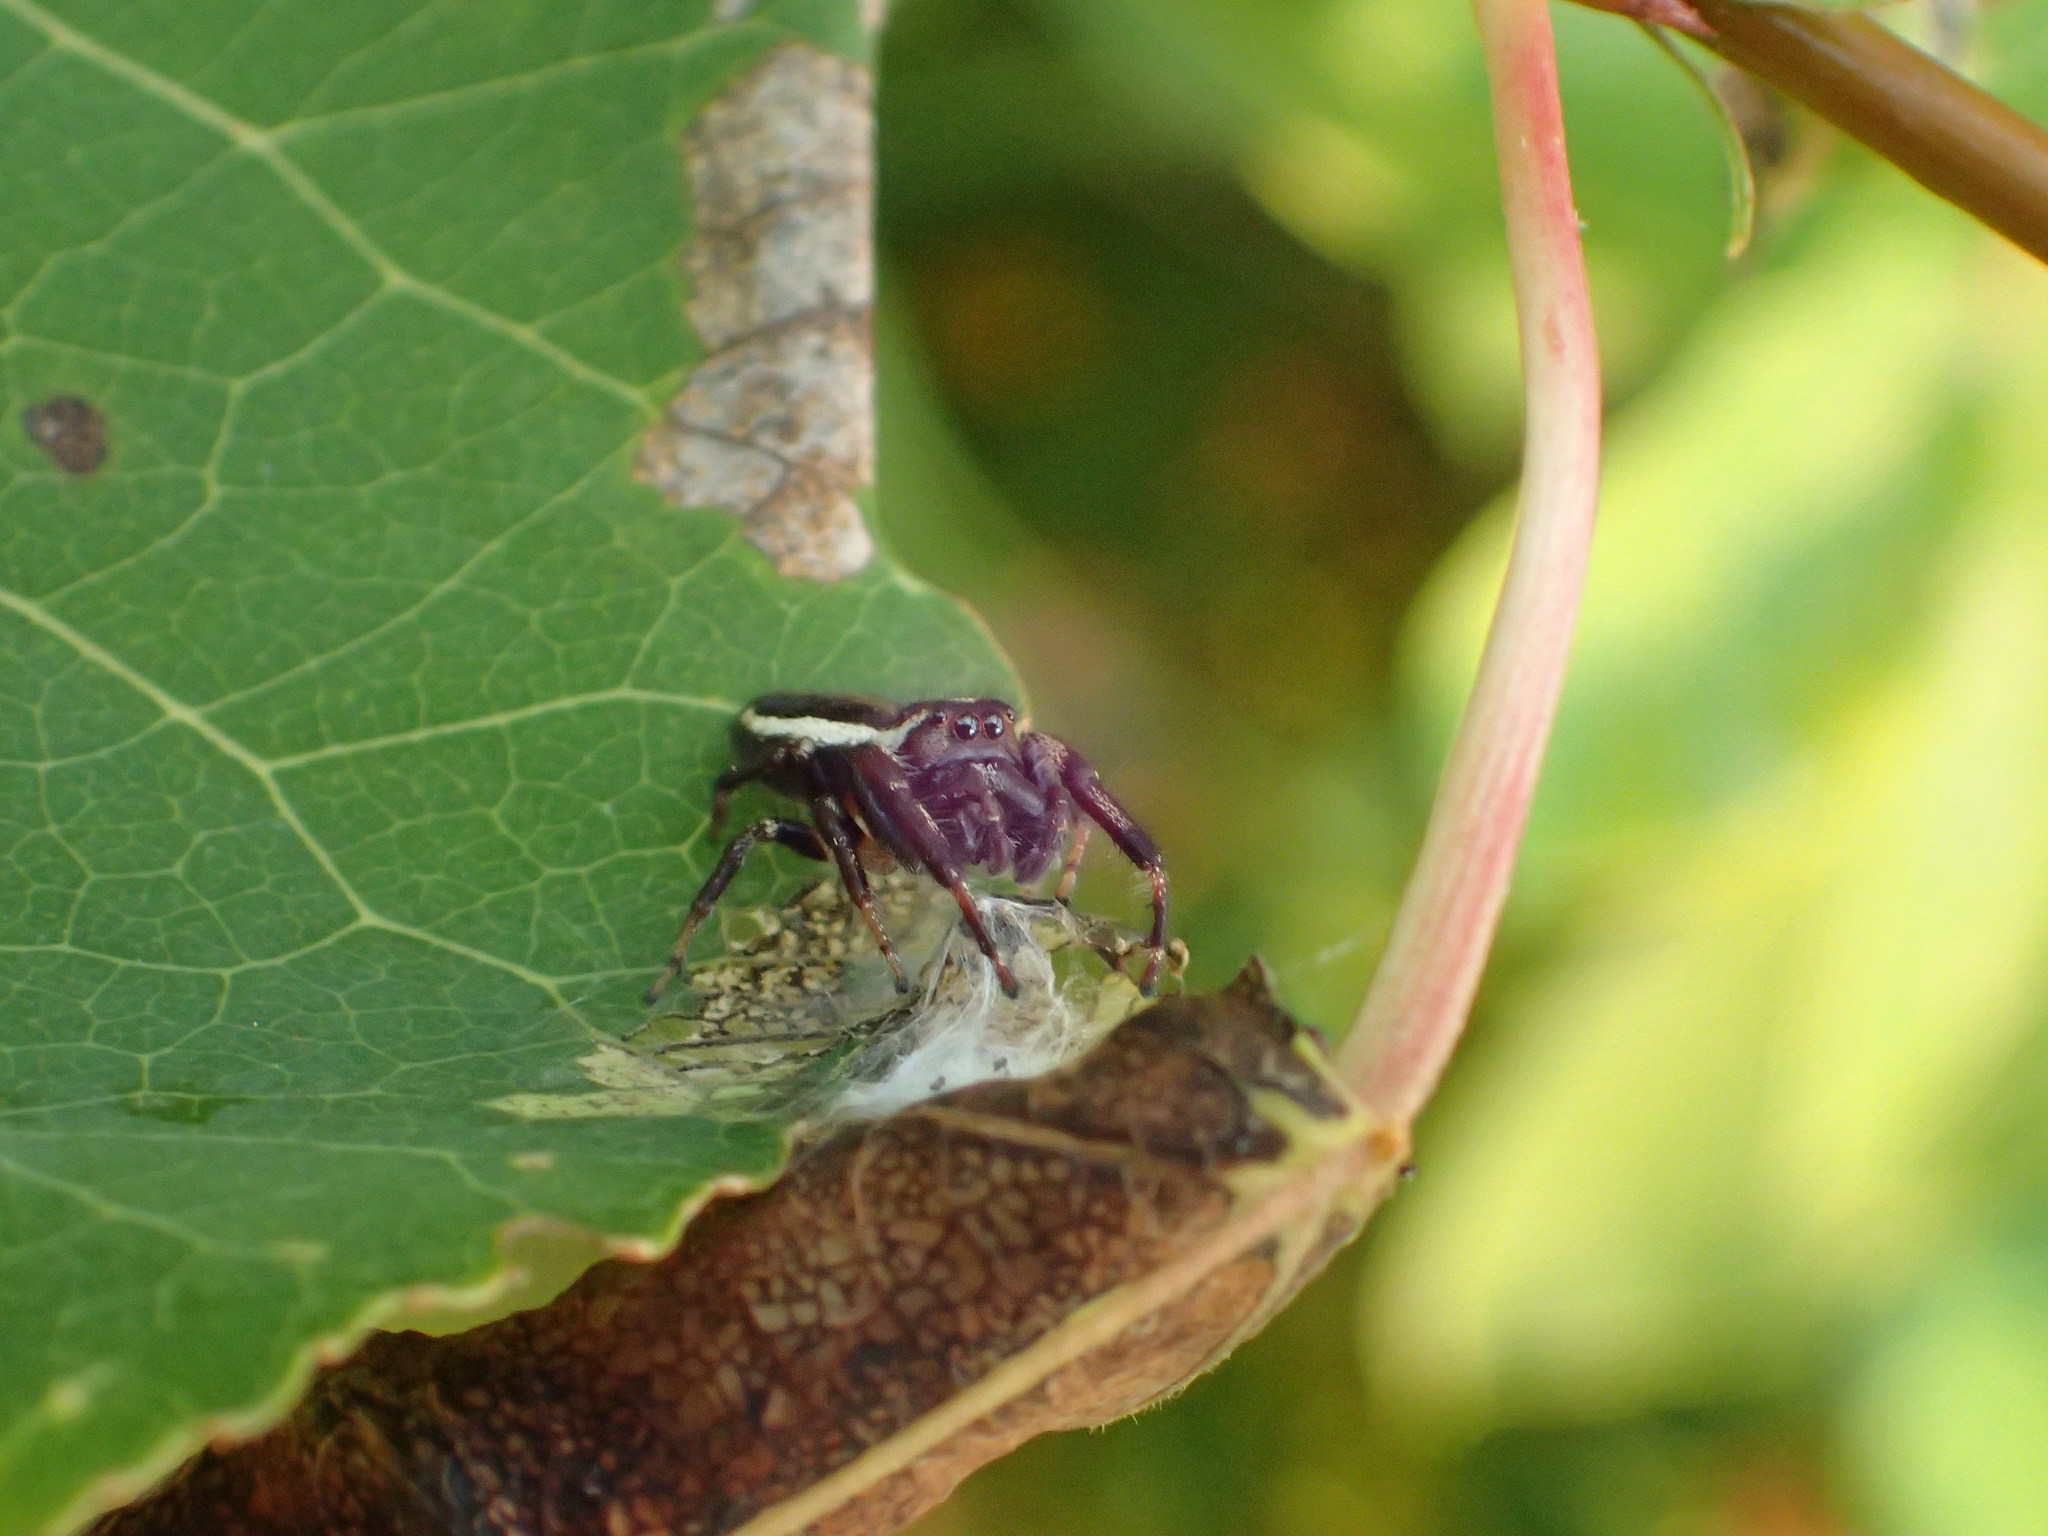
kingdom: Animalia
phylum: Arthropoda
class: Arachnida
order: Araneae
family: Salticidae
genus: Eris
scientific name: Eris militaris
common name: Bronze jumper
